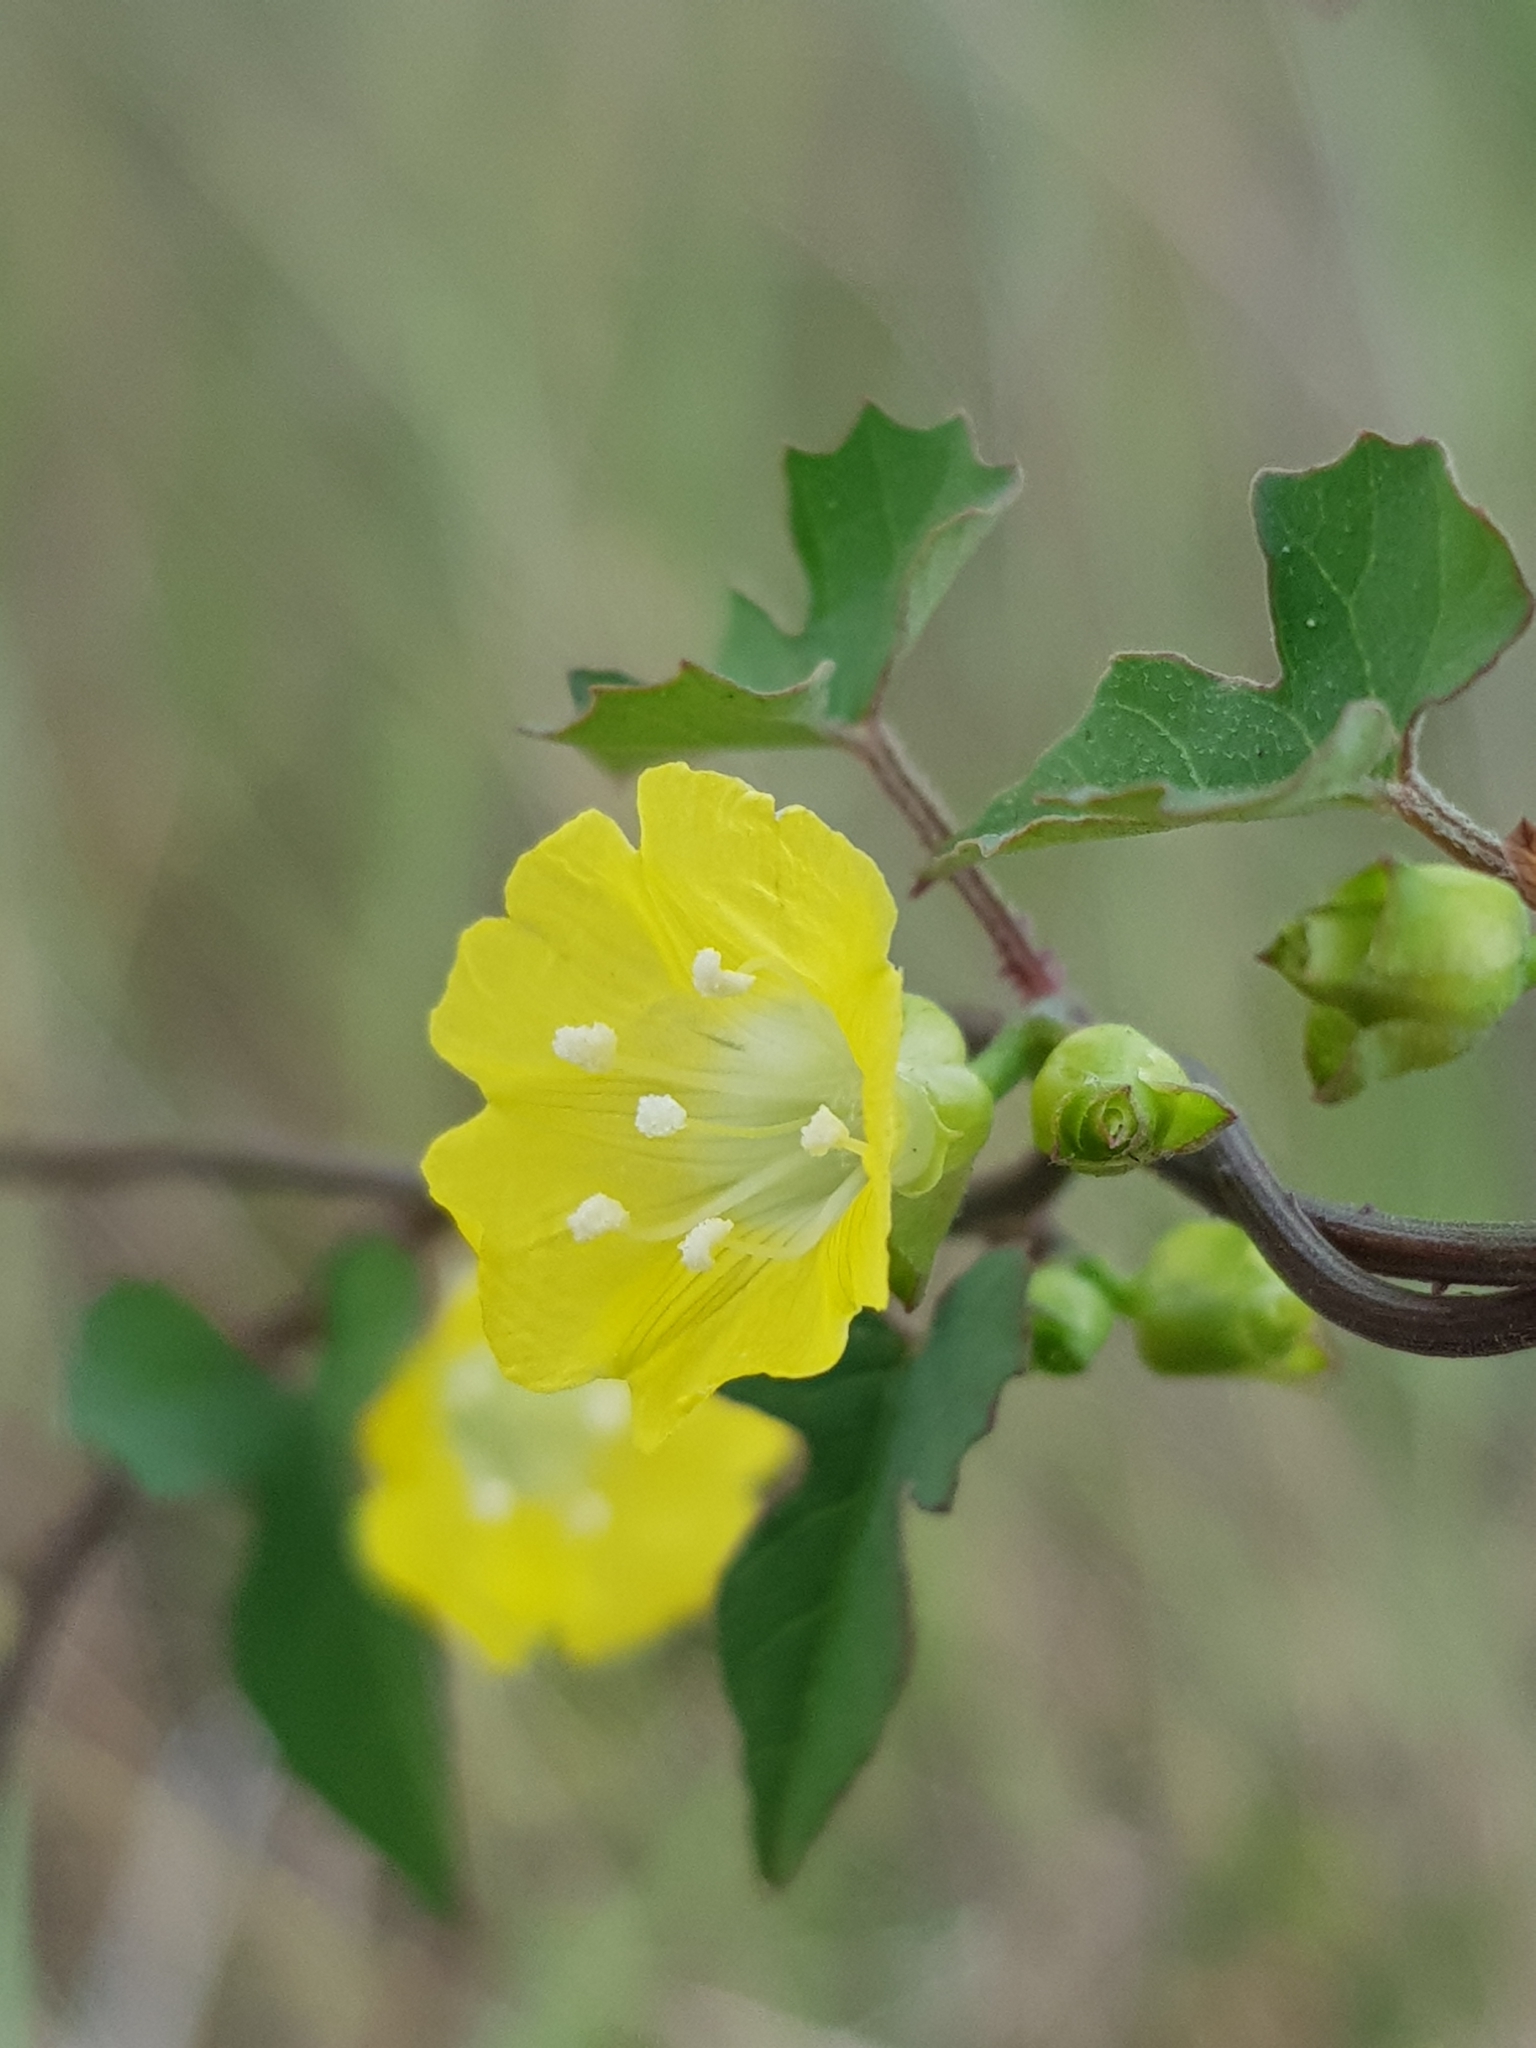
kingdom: Plantae
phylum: Tracheophyta
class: Magnoliopsida
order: Solanales
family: Convolvulaceae
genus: Merremia
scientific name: Merremia hederacea
